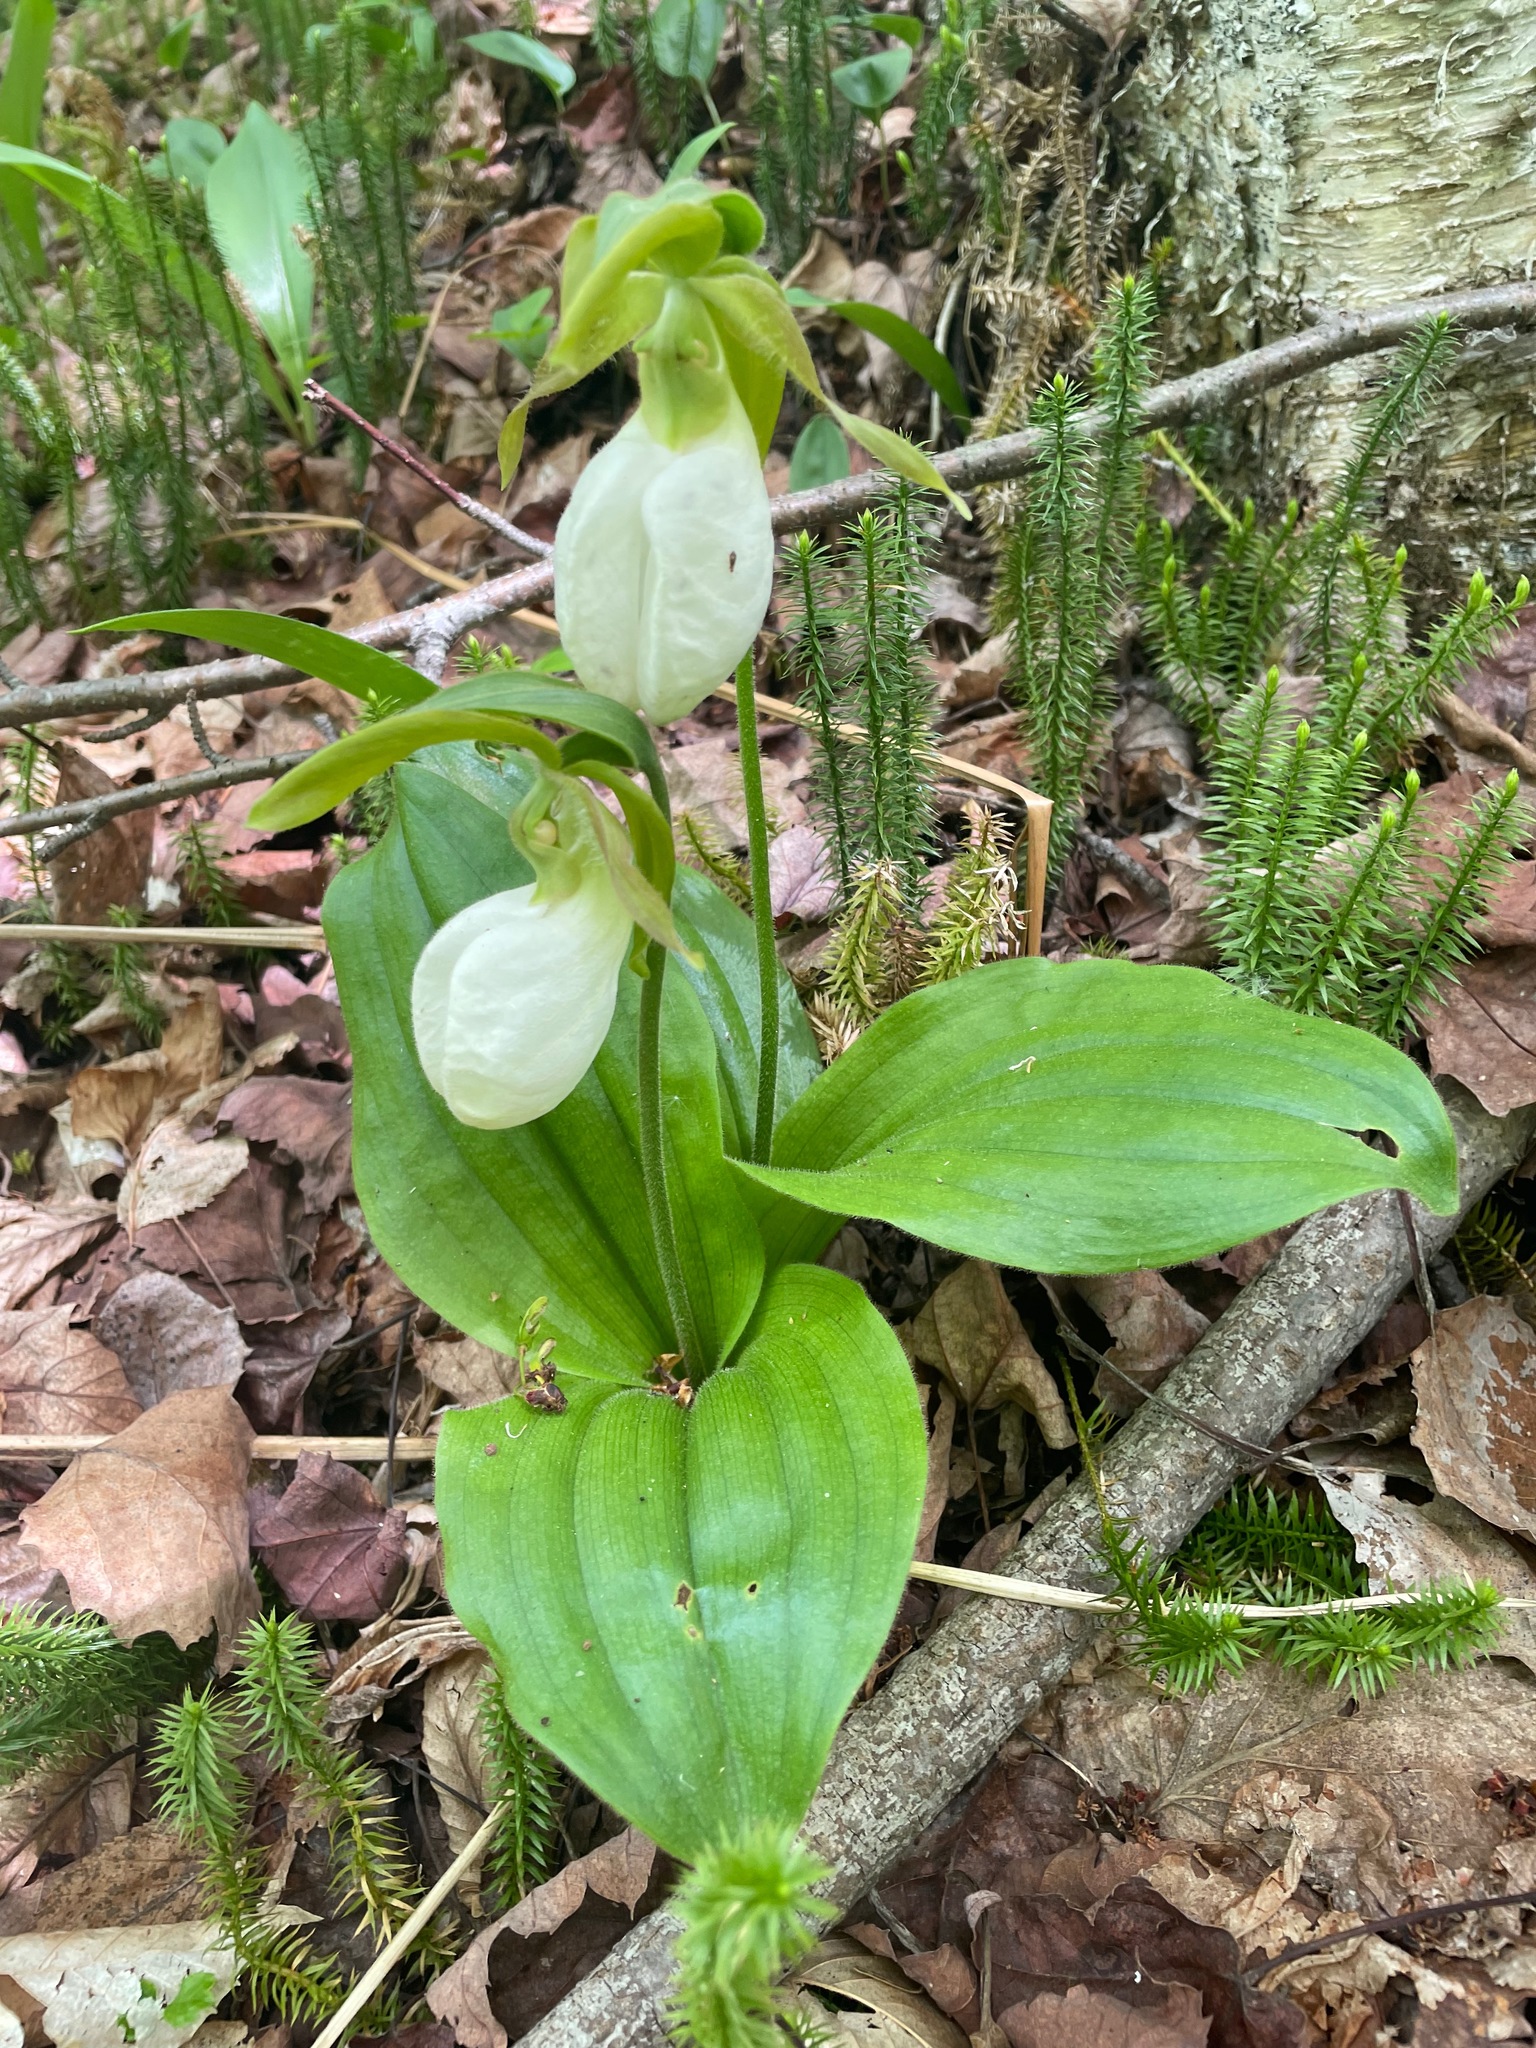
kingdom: Plantae
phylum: Tracheophyta
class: Liliopsida
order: Asparagales
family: Orchidaceae
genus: Cypripedium
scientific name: Cypripedium acaule
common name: Pink lady's-slipper
